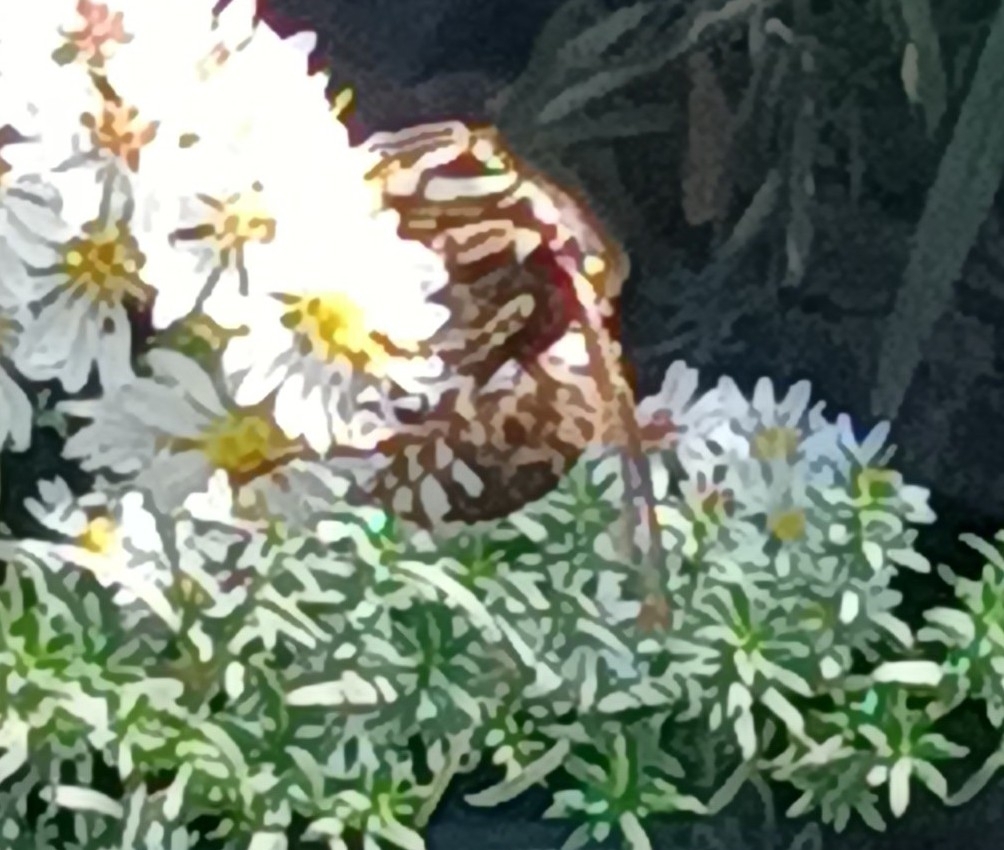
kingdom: Animalia
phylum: Arthropoda
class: Insecta
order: Hymenoptera
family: Vespidae
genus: Dolichovespula
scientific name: Dolichovespula maculata
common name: Bald-faced hornet
